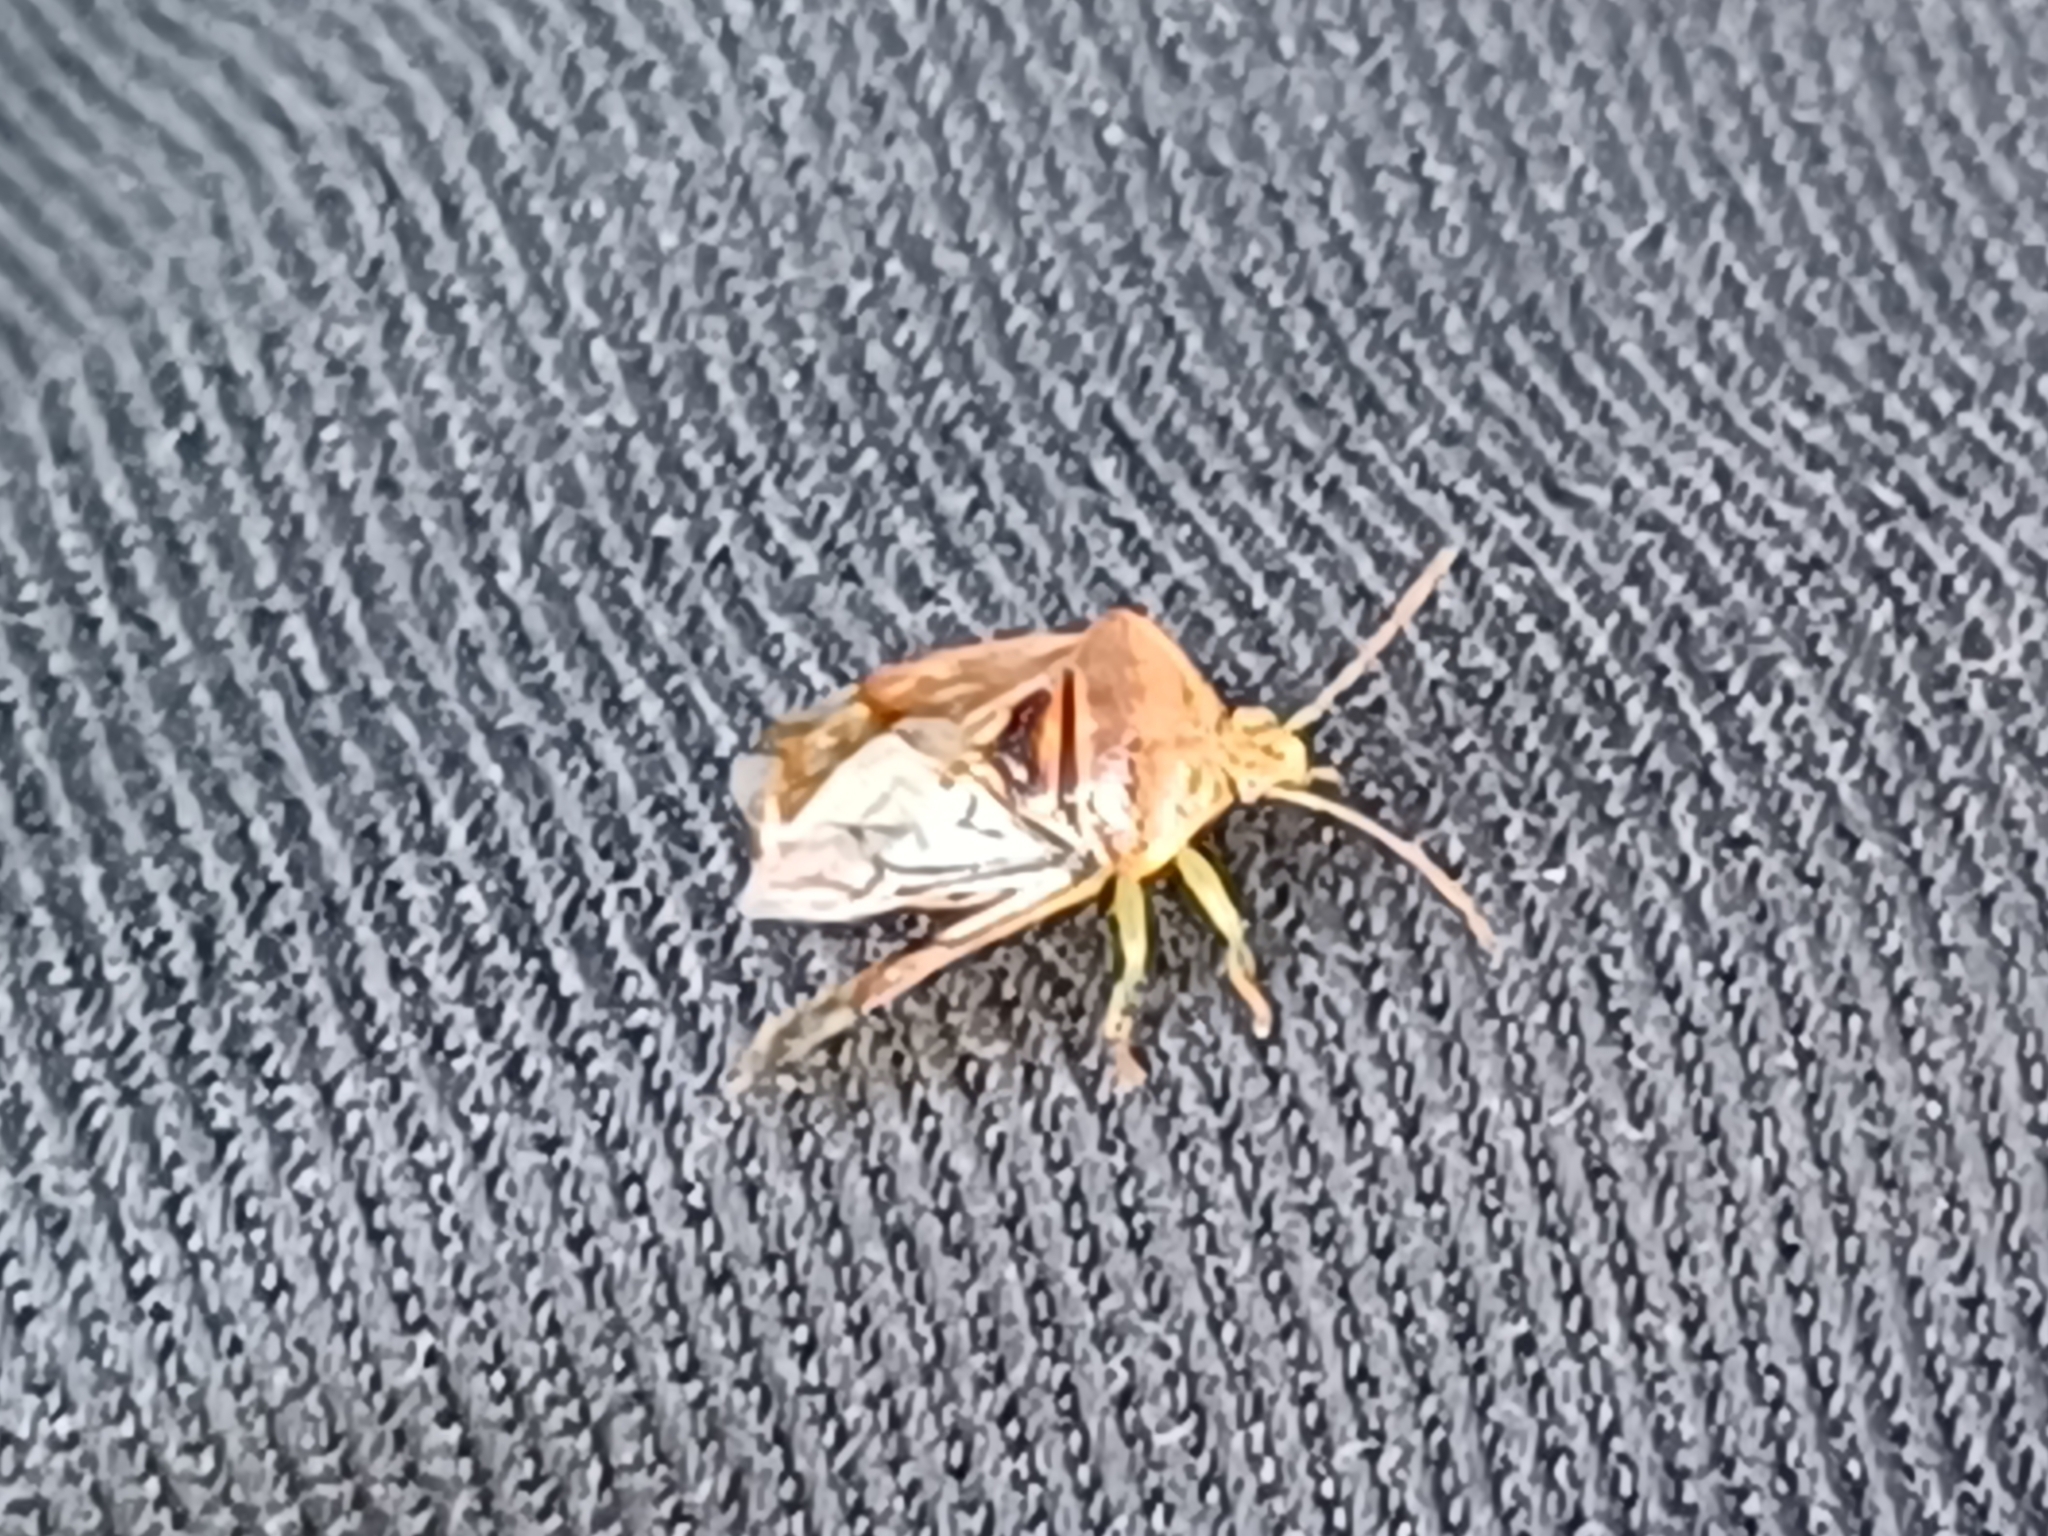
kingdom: Animalia
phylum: Arthropoda
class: Insecta
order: Hemiptera
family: Acanthosomatidae
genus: Elasmucha
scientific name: Elasmucha grisea
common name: Parent bug
